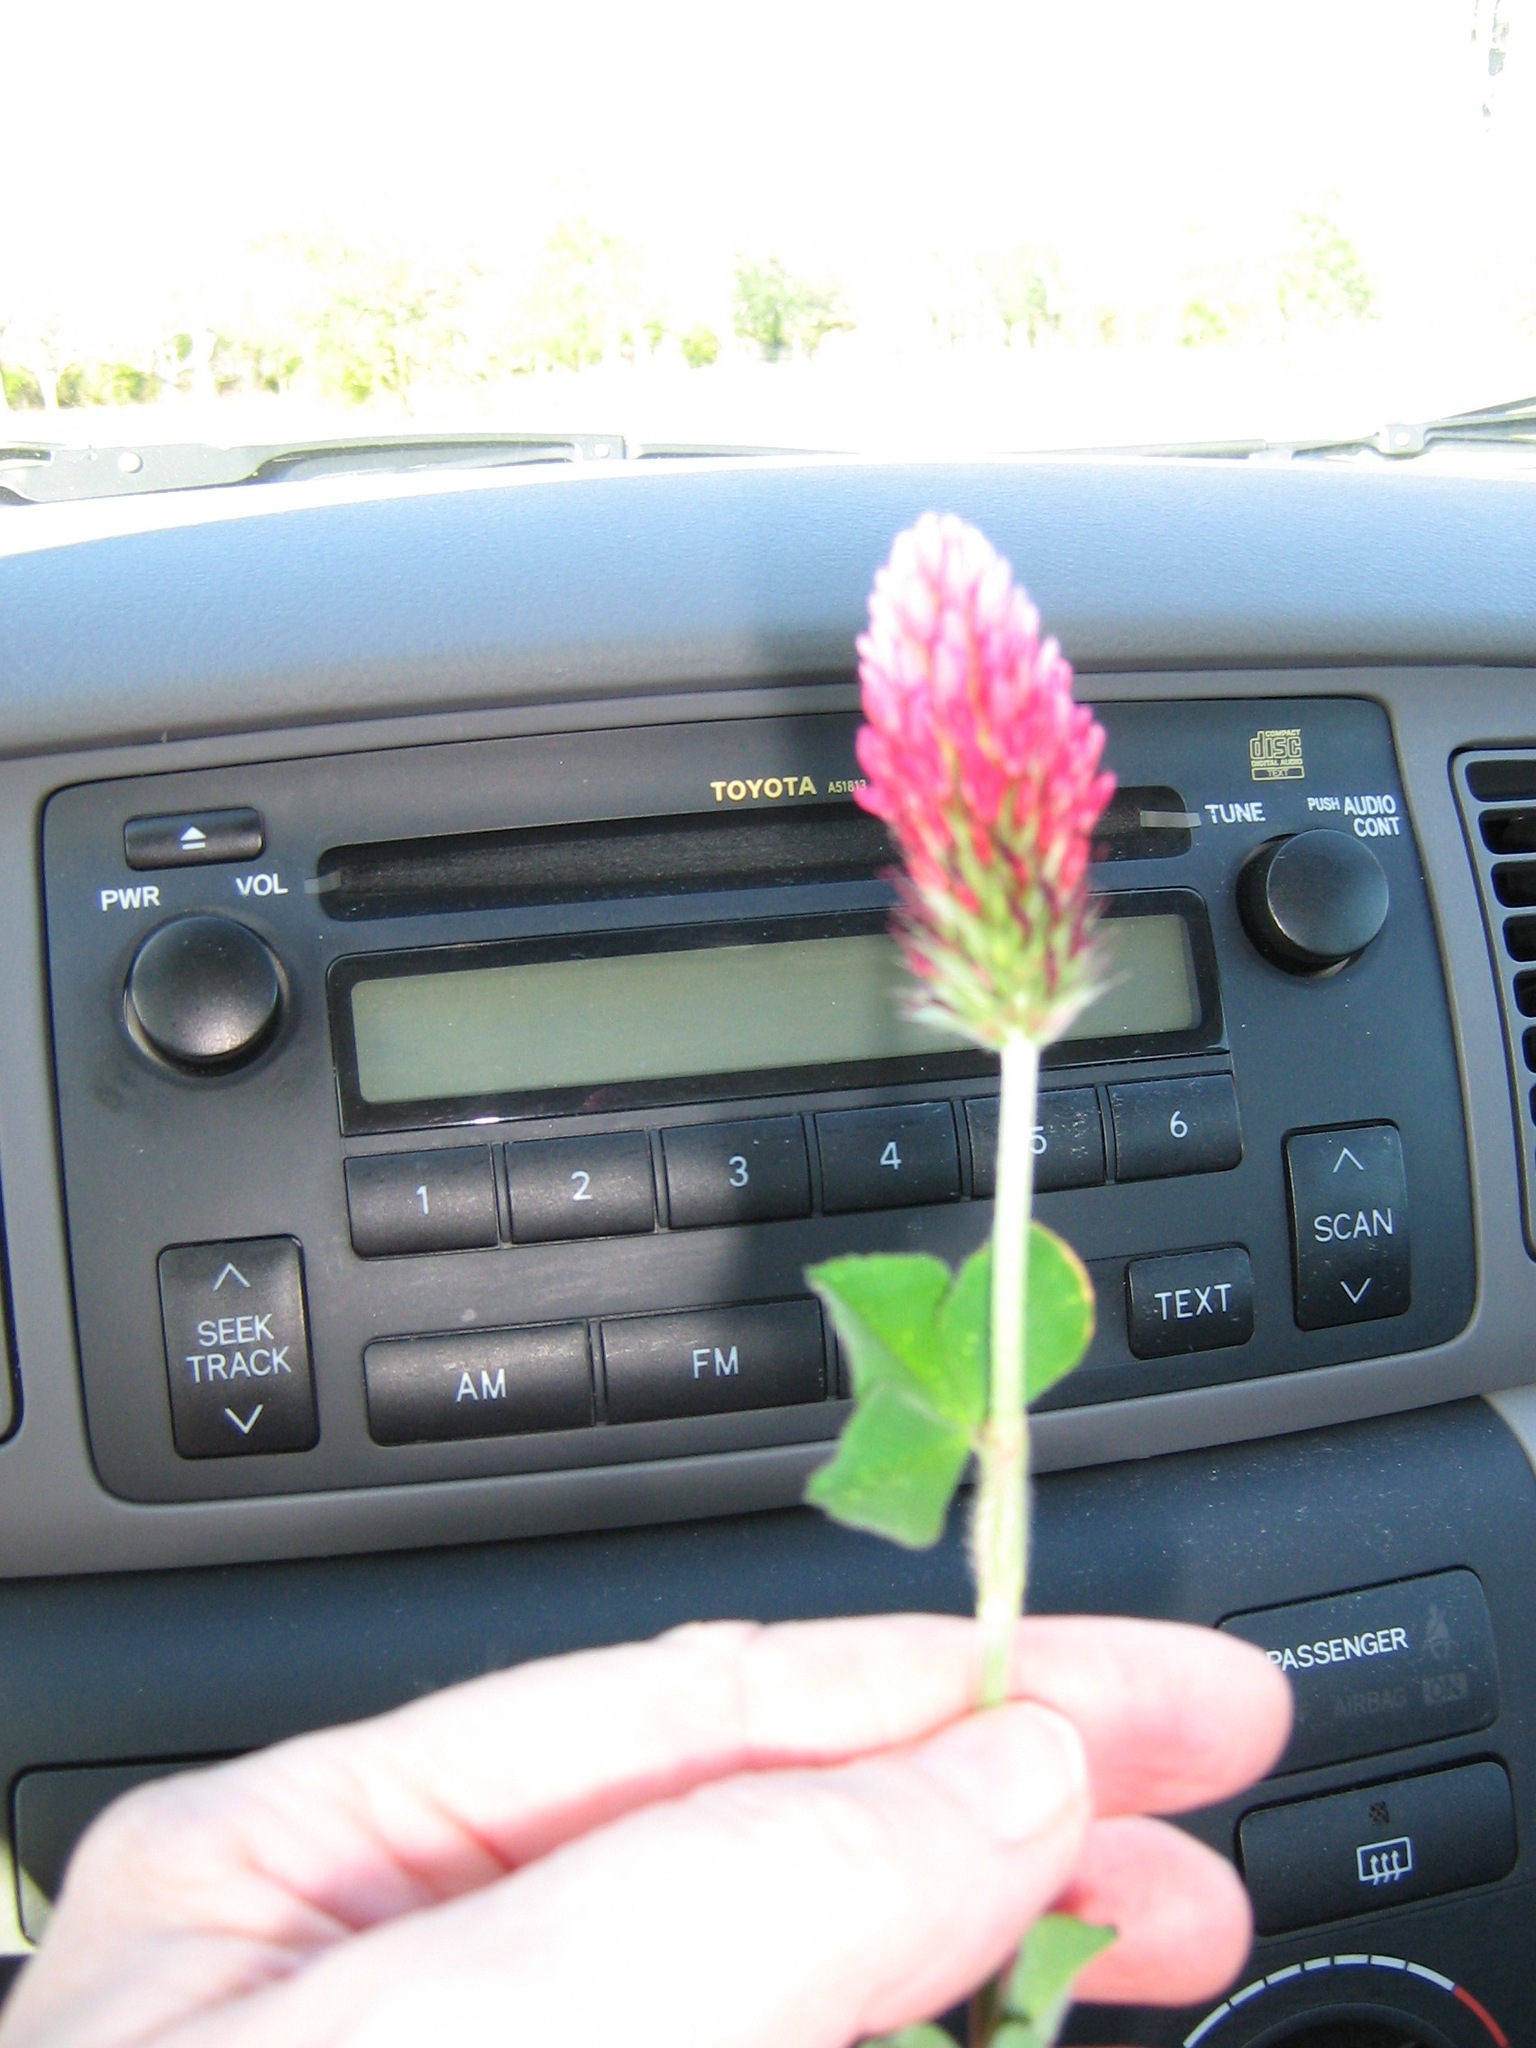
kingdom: Plantae
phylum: Tracheophyta
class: Magnoliopsida
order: Fabales
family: Fabaceae
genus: Trifolium
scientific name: Trifolium incarnatum
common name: Crimson clover
